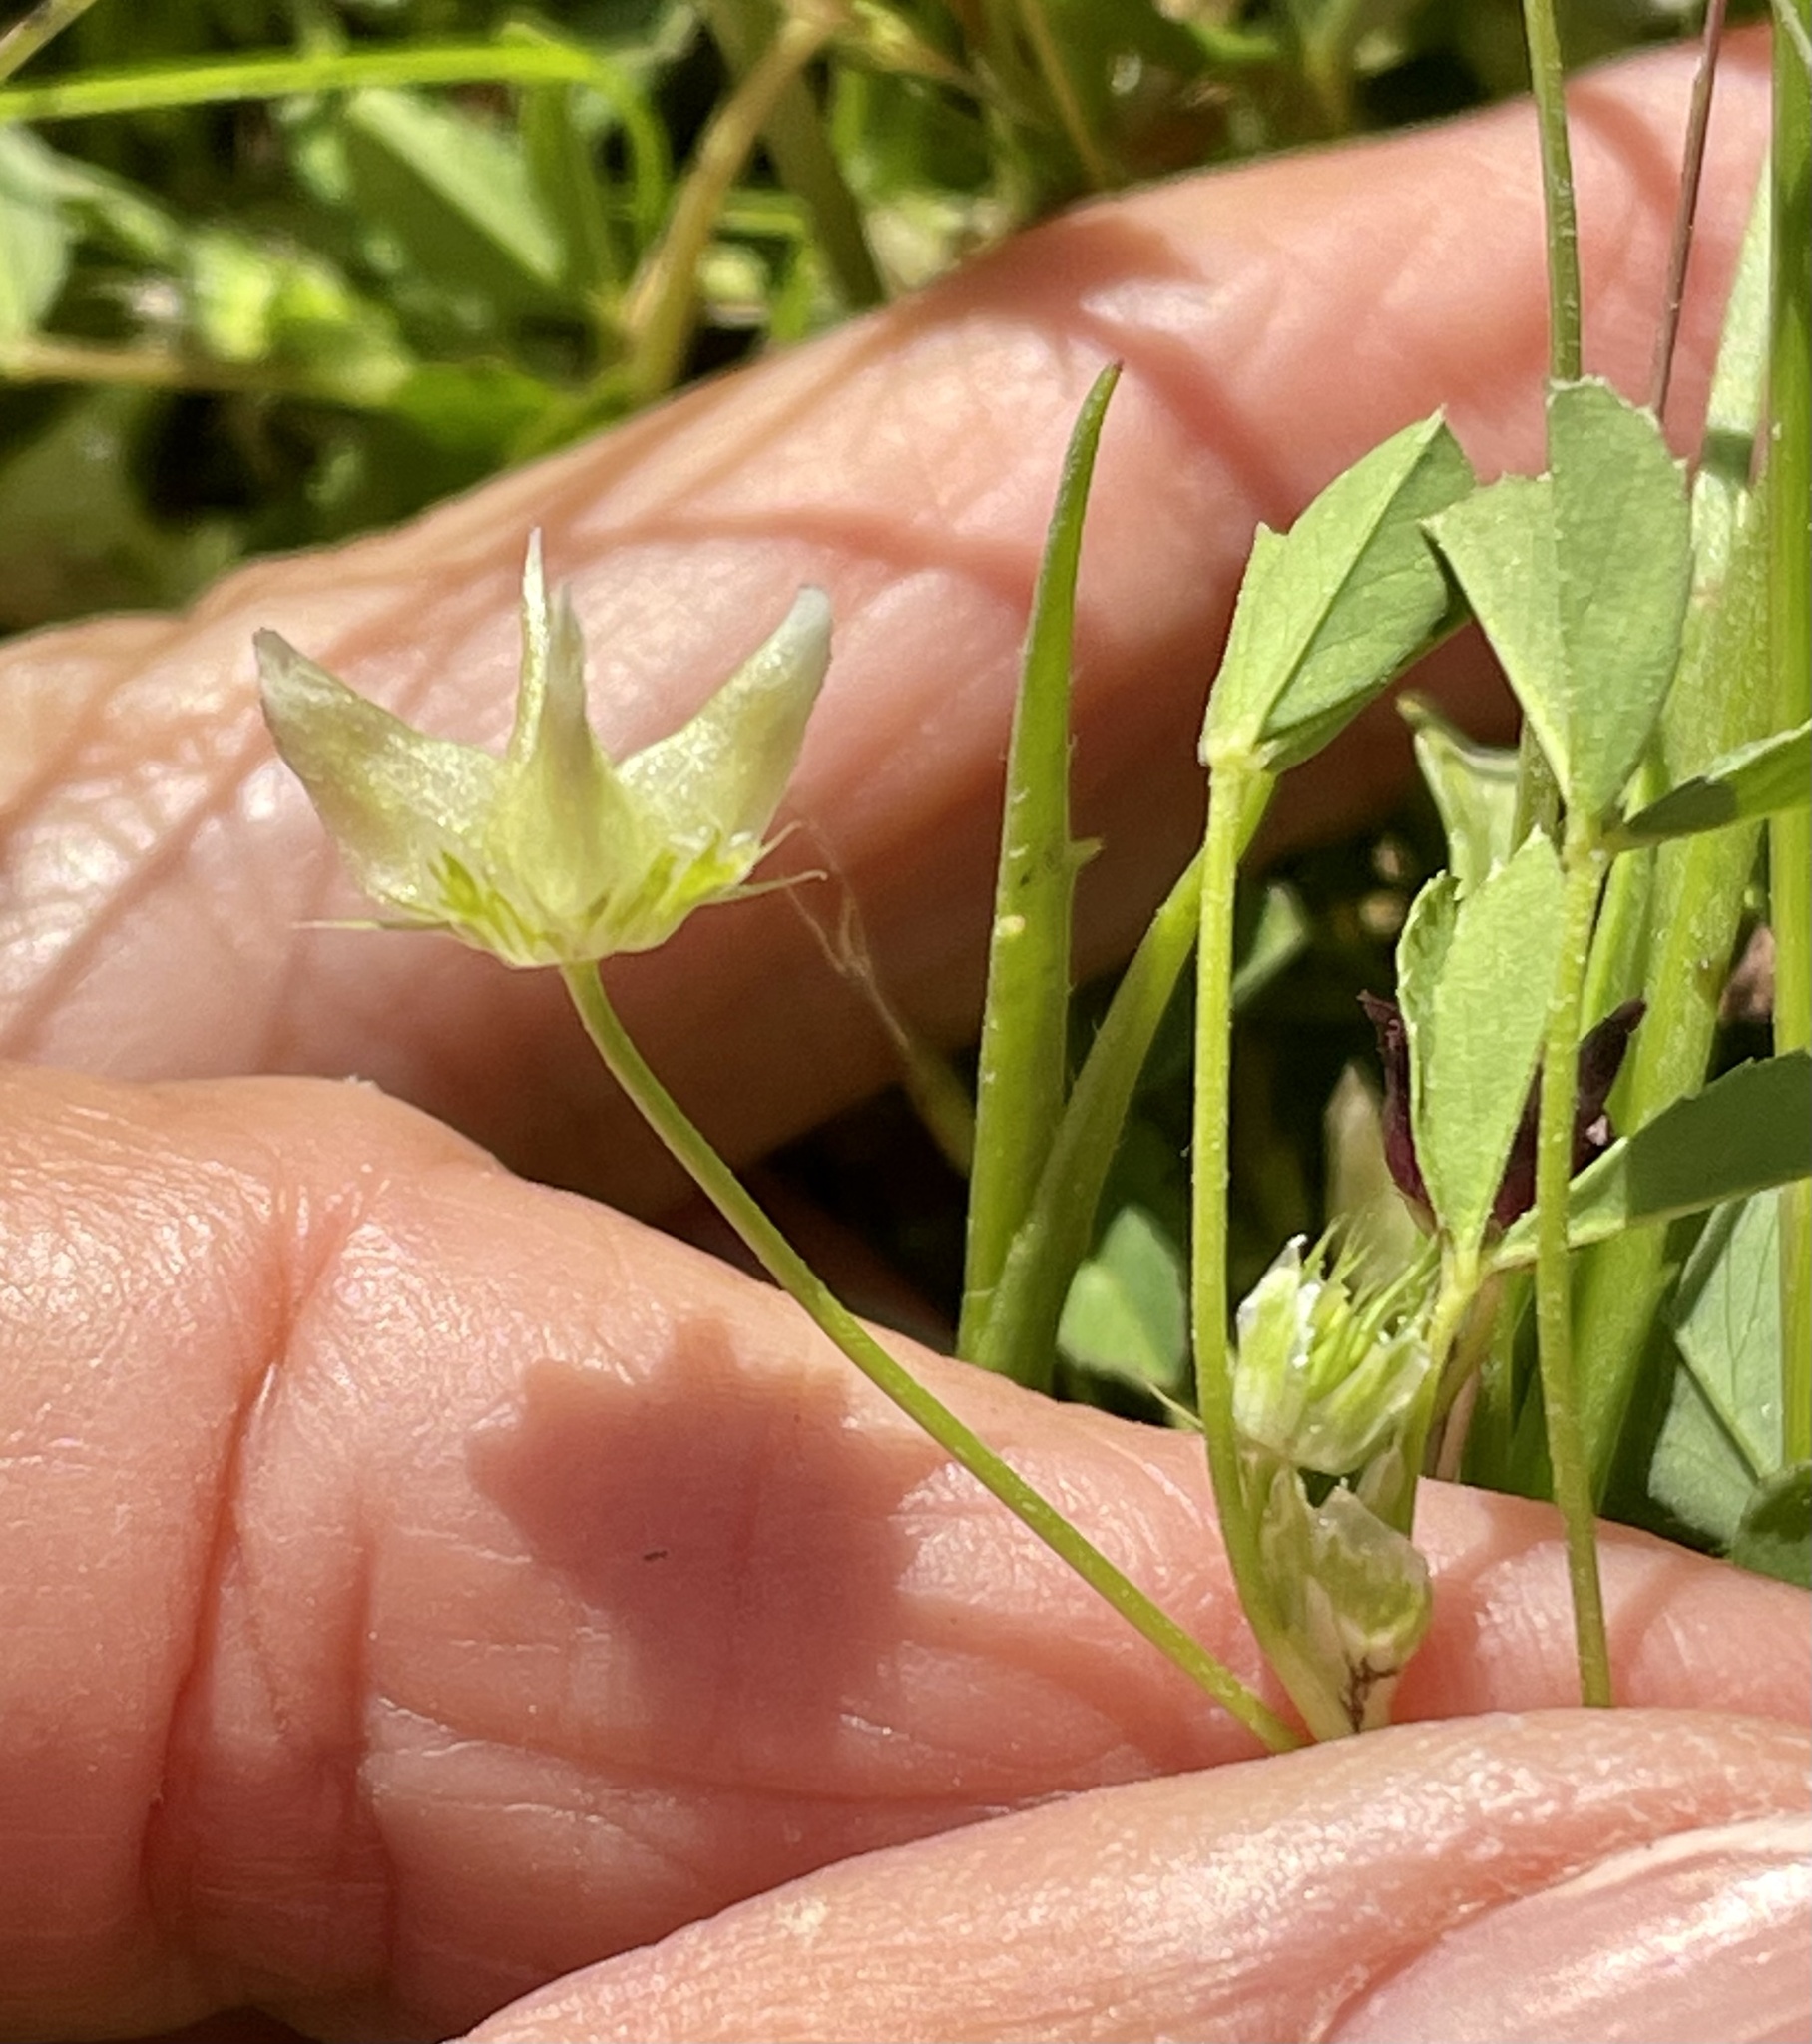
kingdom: Plantae
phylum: Tracheophyta
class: Magnoliopsida
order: Fabales
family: Fabaceae
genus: Trifolium
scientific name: Trifolium amplectens
